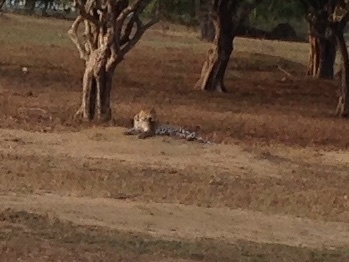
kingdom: Animalia
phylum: Chordata
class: Mammalia
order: Carnivora
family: Felidae
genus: Panthera
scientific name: Panthera pardus
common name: Leopard
